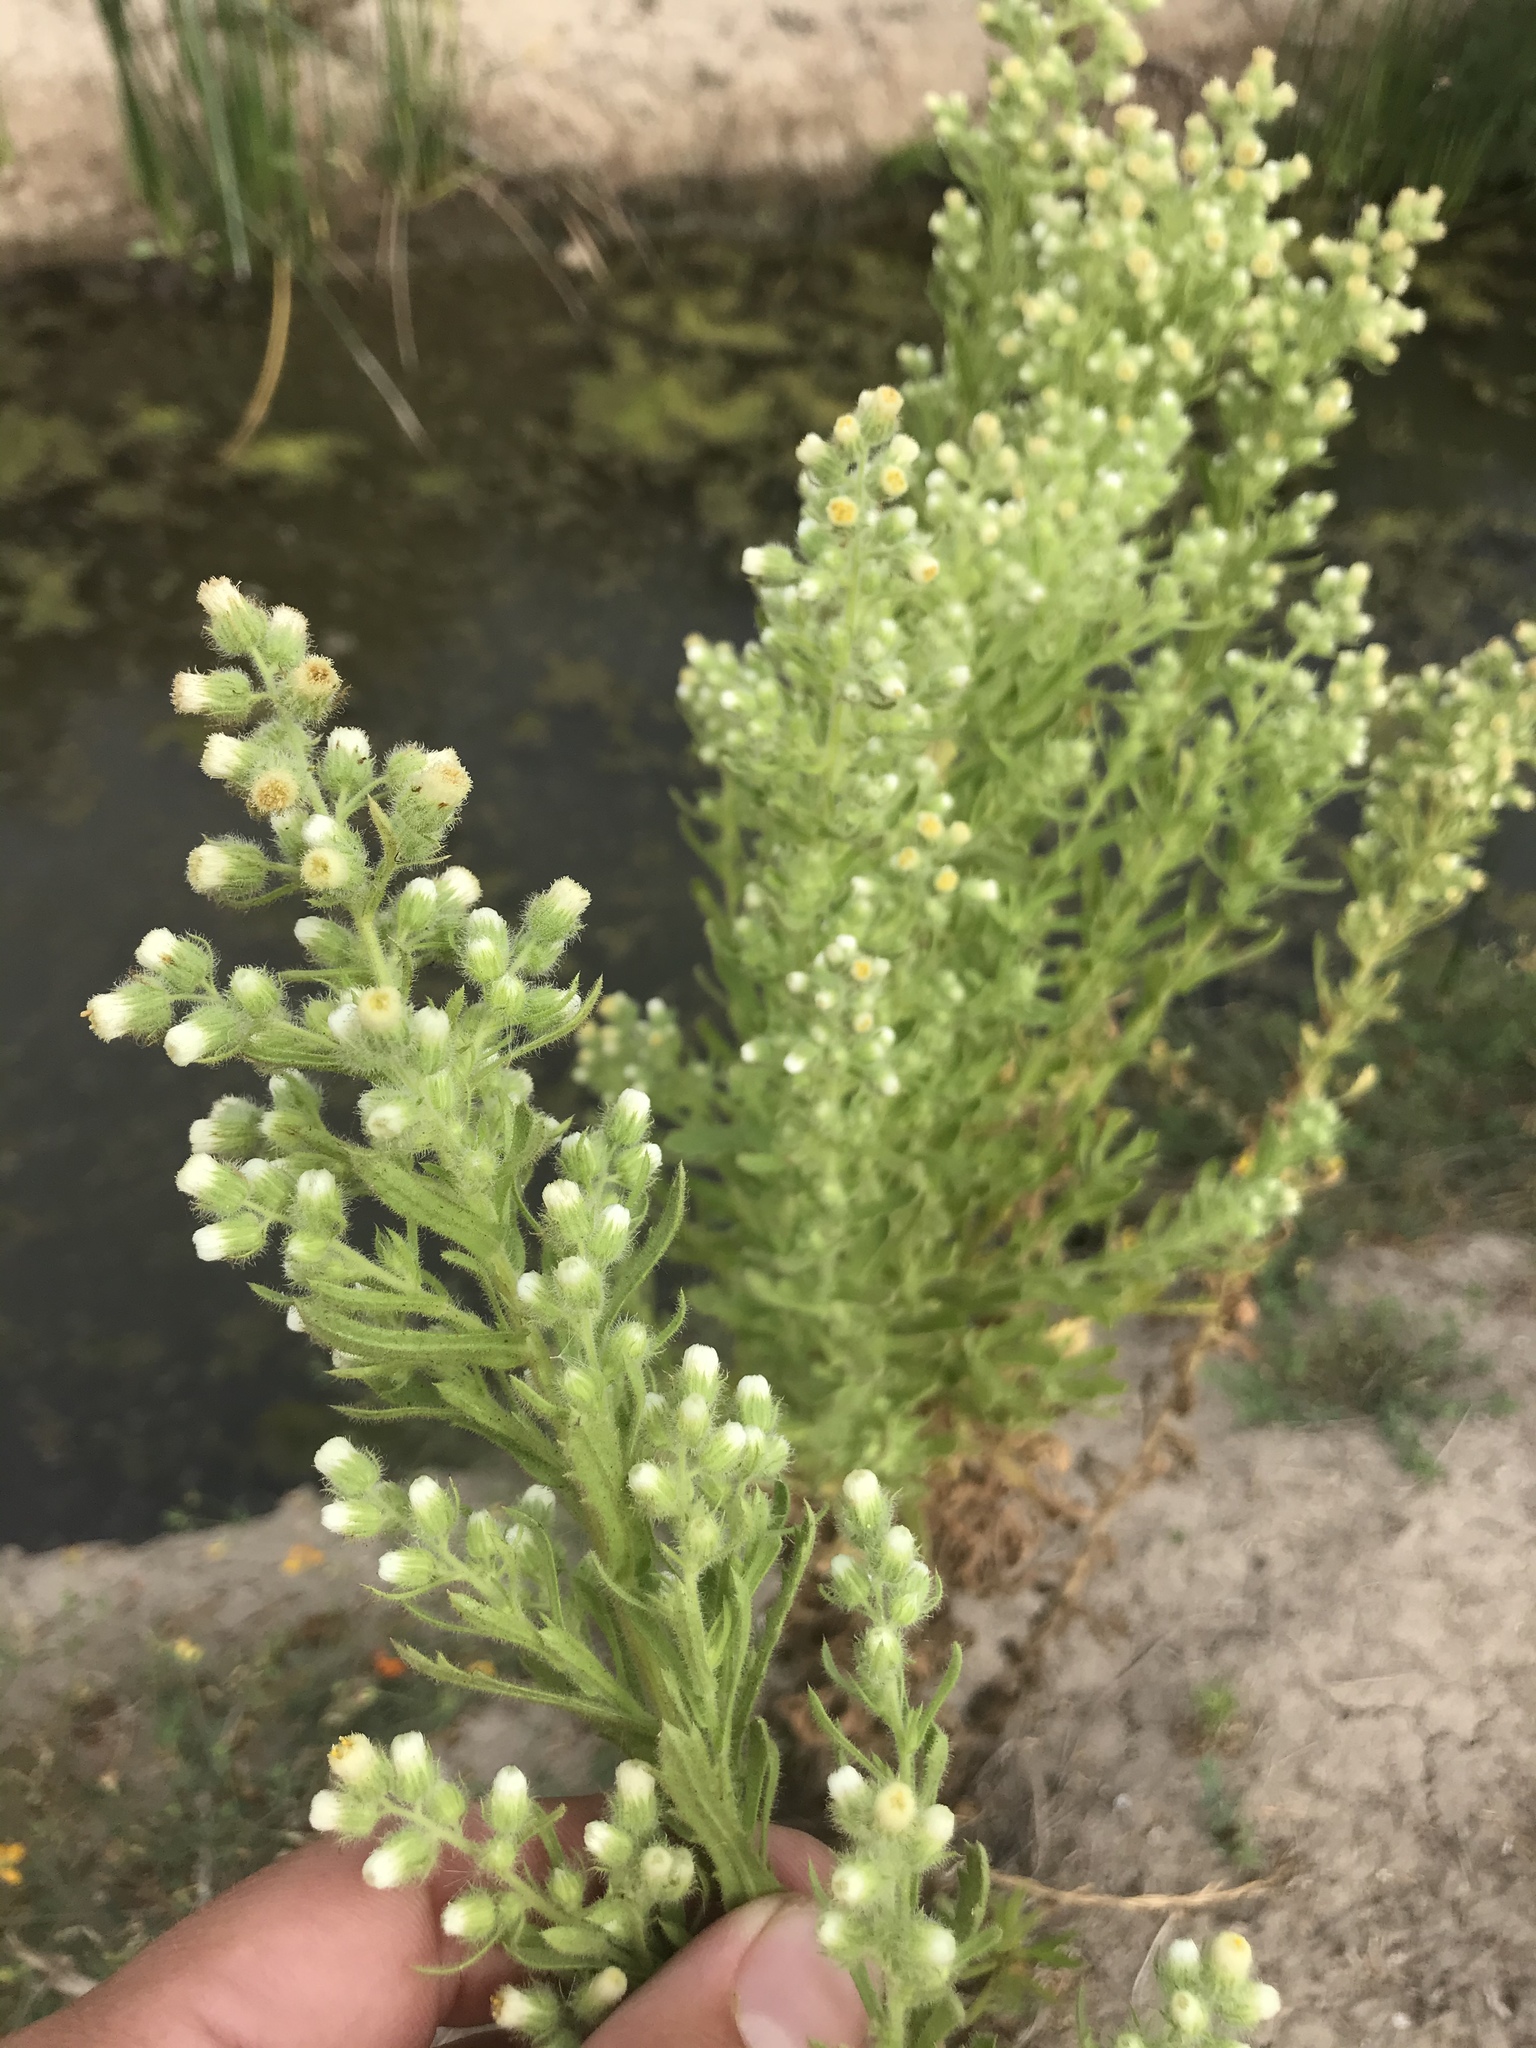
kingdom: Plantae
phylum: Tracheophyta
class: Magnoliopsida
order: Asterales
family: Asteraceae
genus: Laennecia
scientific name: Laennecia coulteri
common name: Coulter's woolwort
